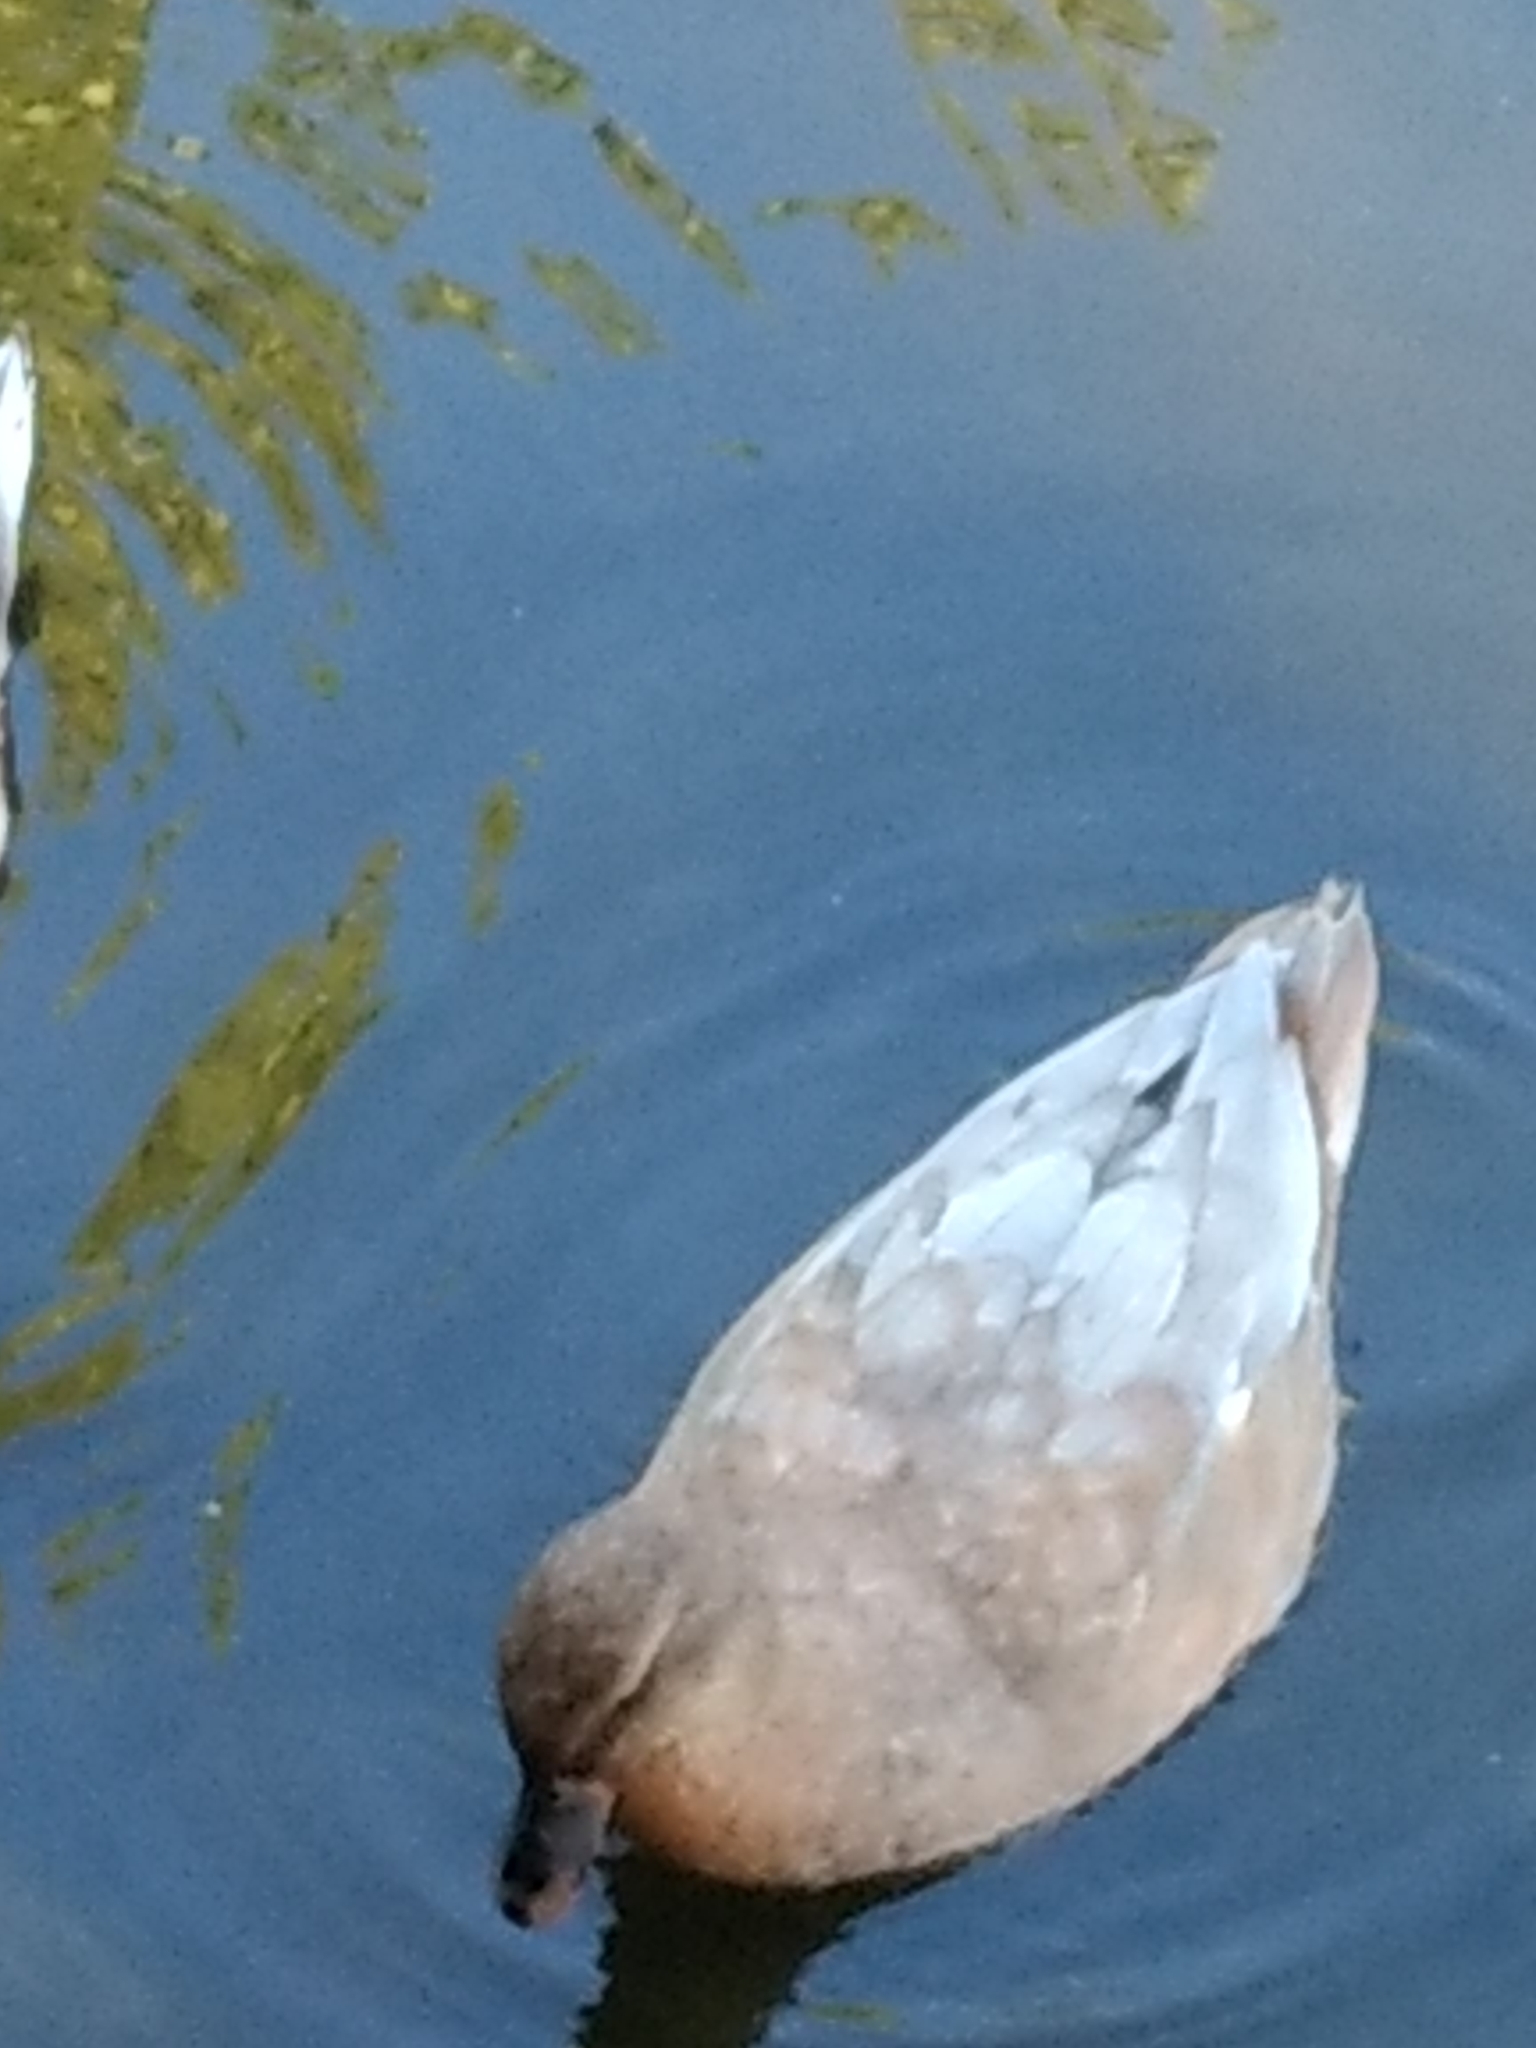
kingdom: Animalia
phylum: Chordata
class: Aves
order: Anseriformes
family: Anatidae
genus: Anas
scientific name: Anas platyrhynchos
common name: Mallard
